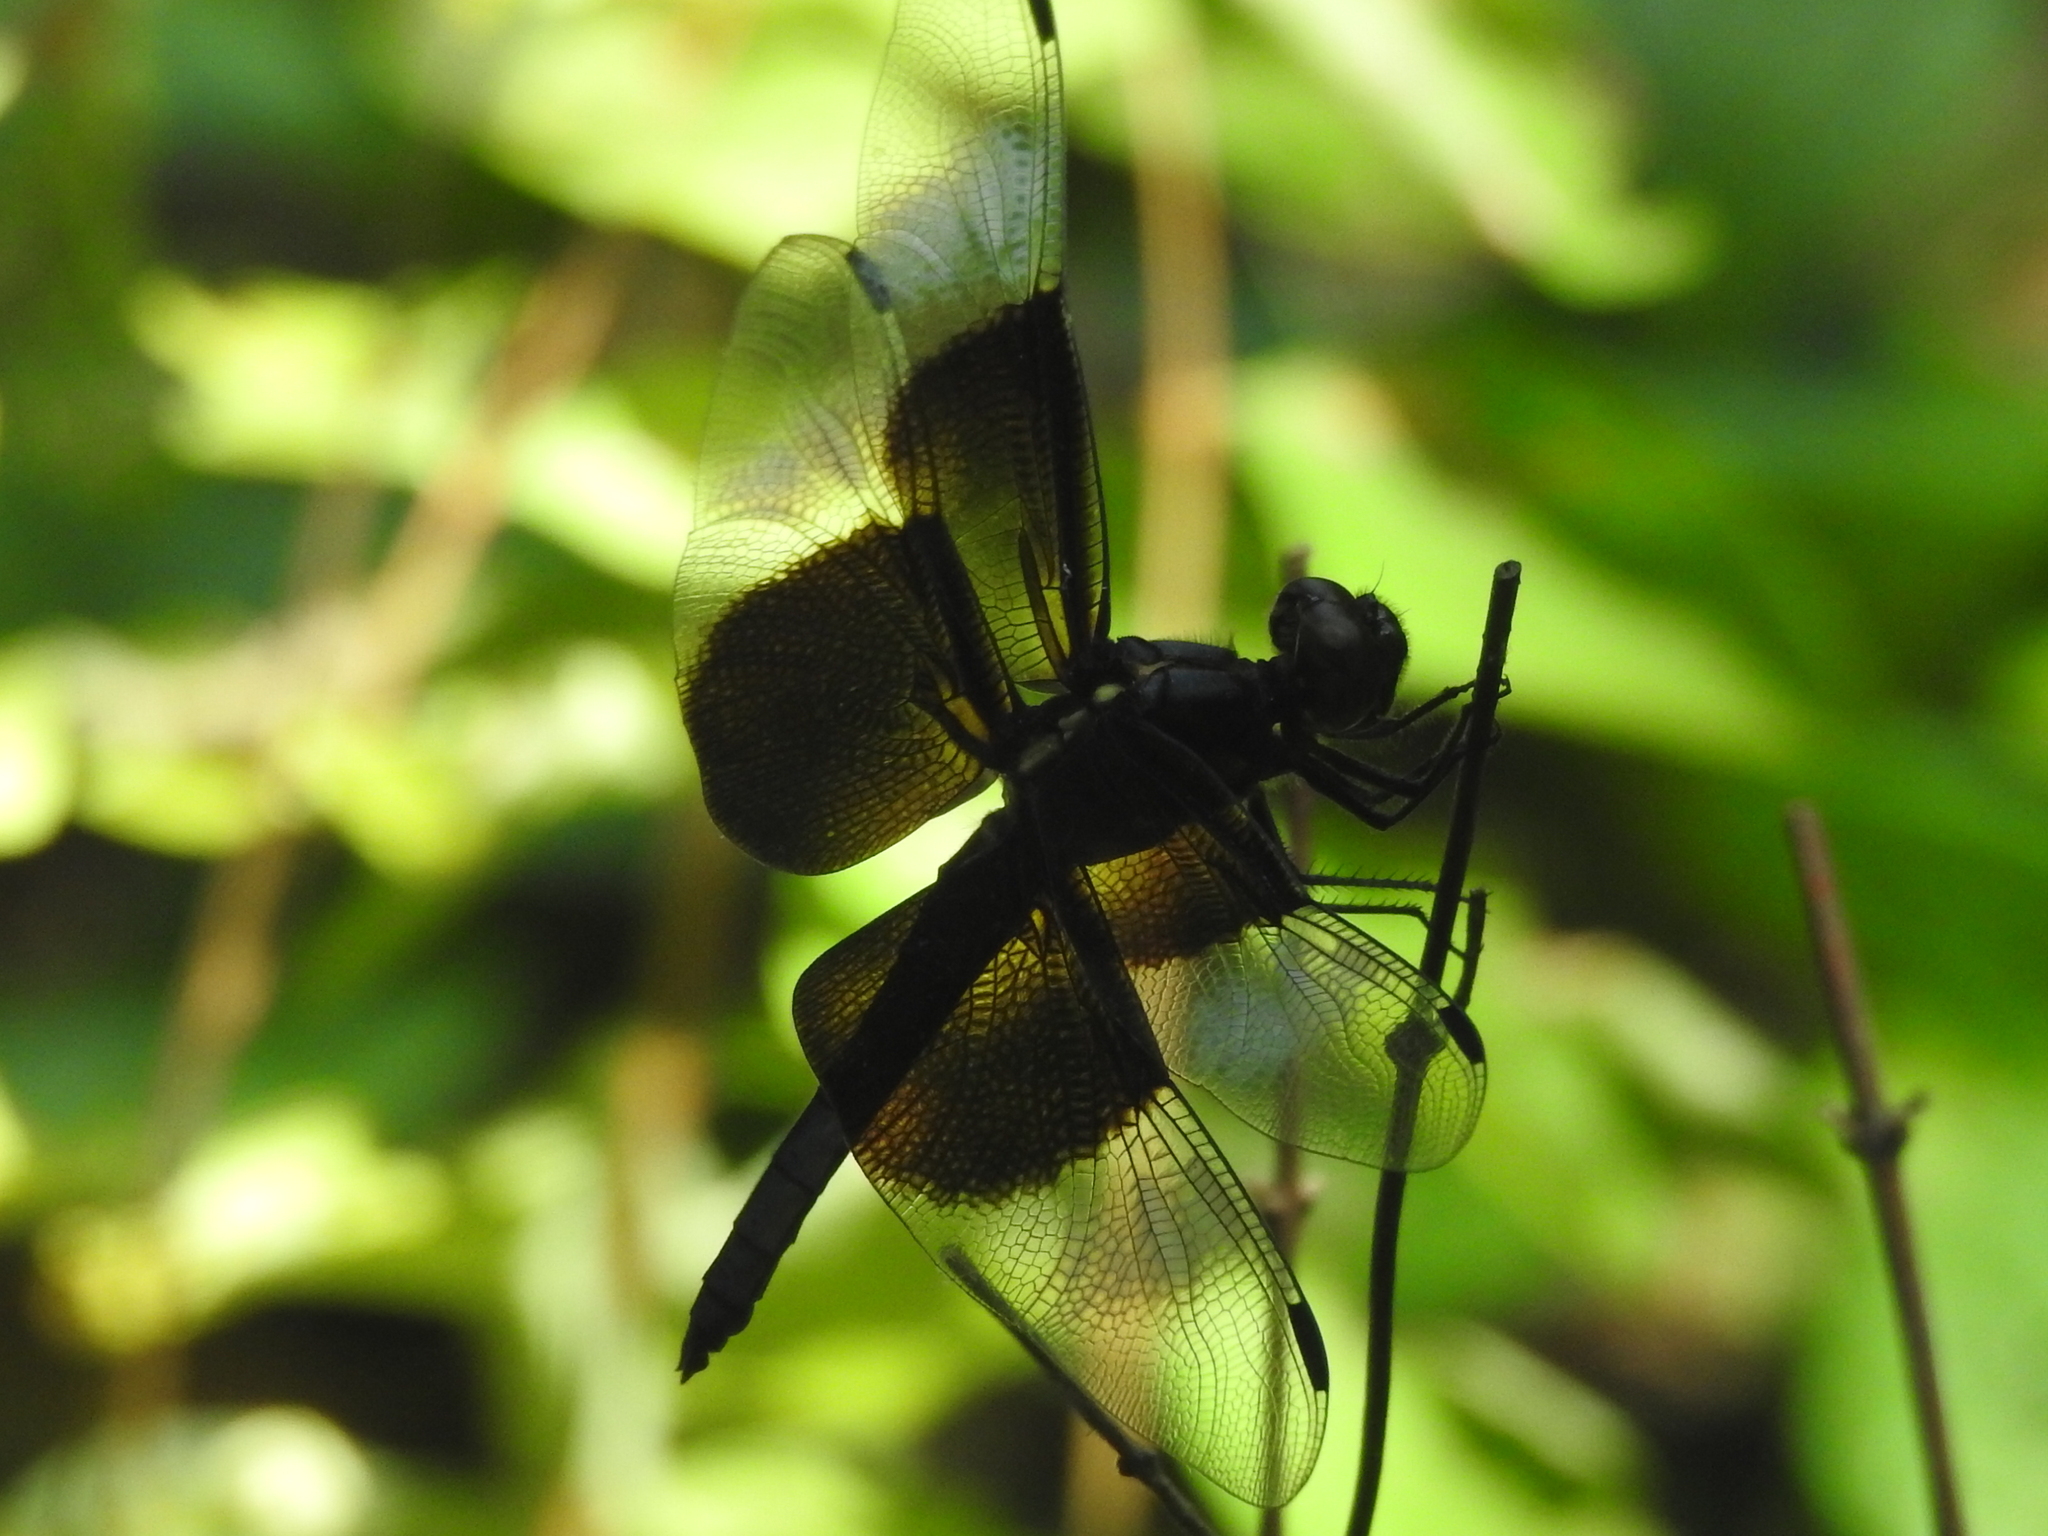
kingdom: Animalia
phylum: Arthropoda
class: Insecta
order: Odonata
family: Libellulidae
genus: Libellula
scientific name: Libellula luctuosa
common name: Widow skimmer
